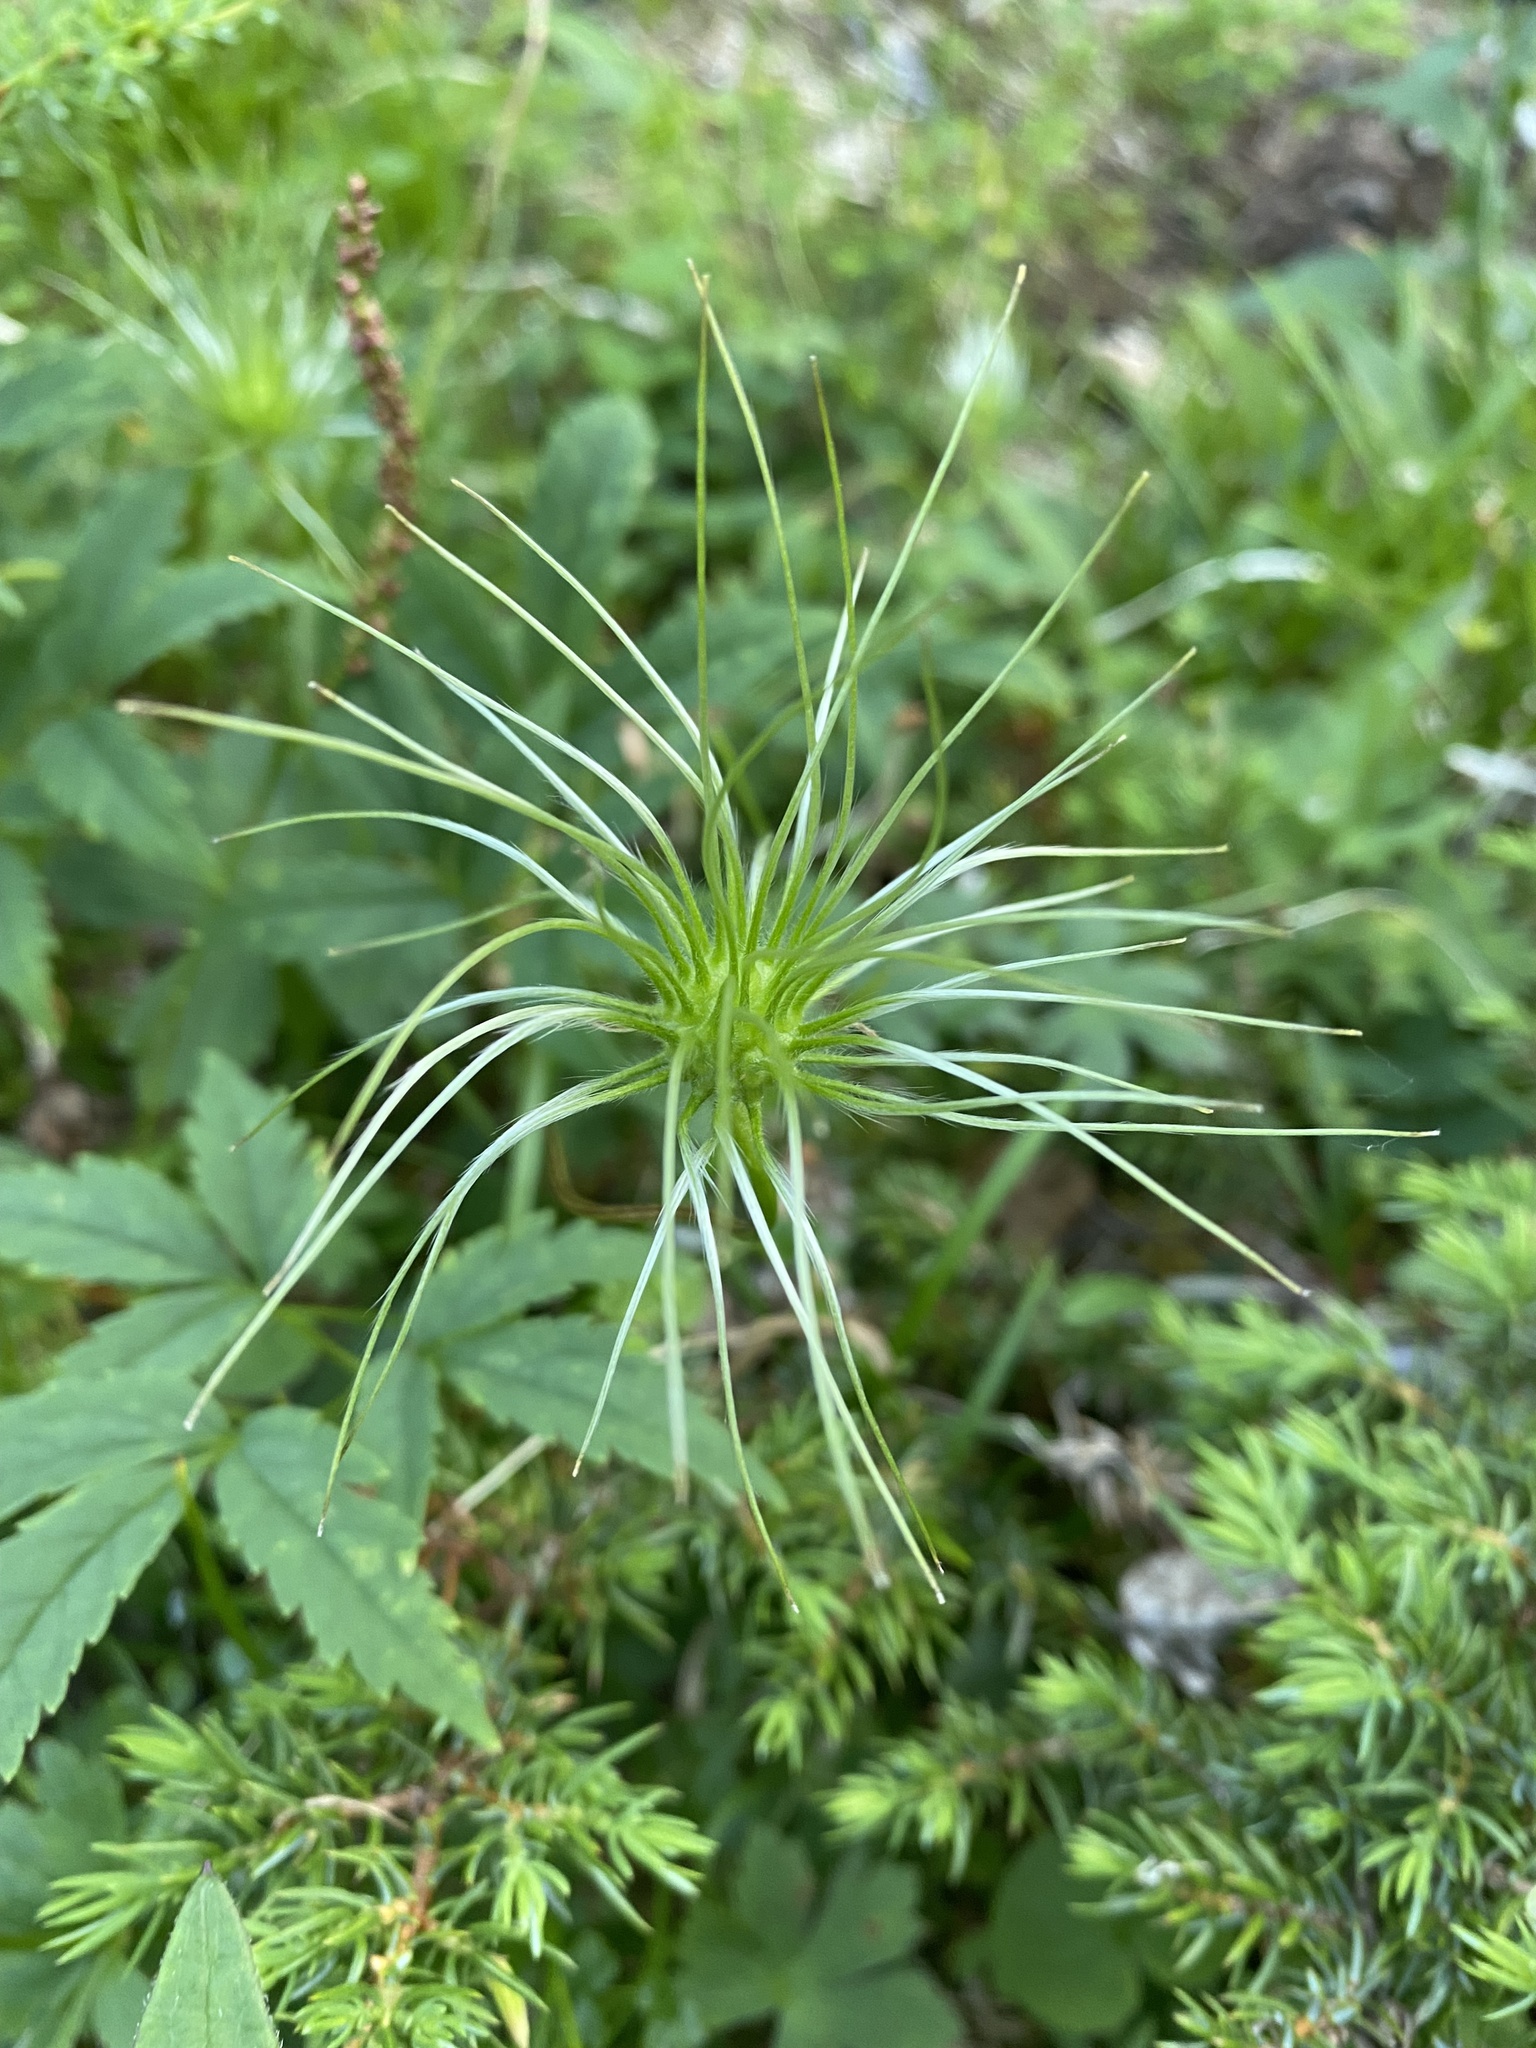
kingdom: Plantae
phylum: Tracheophyta
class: Magnoliopsida
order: Ranunculales
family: Ranunculaceae
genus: Clematis
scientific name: Clematis sibirica
